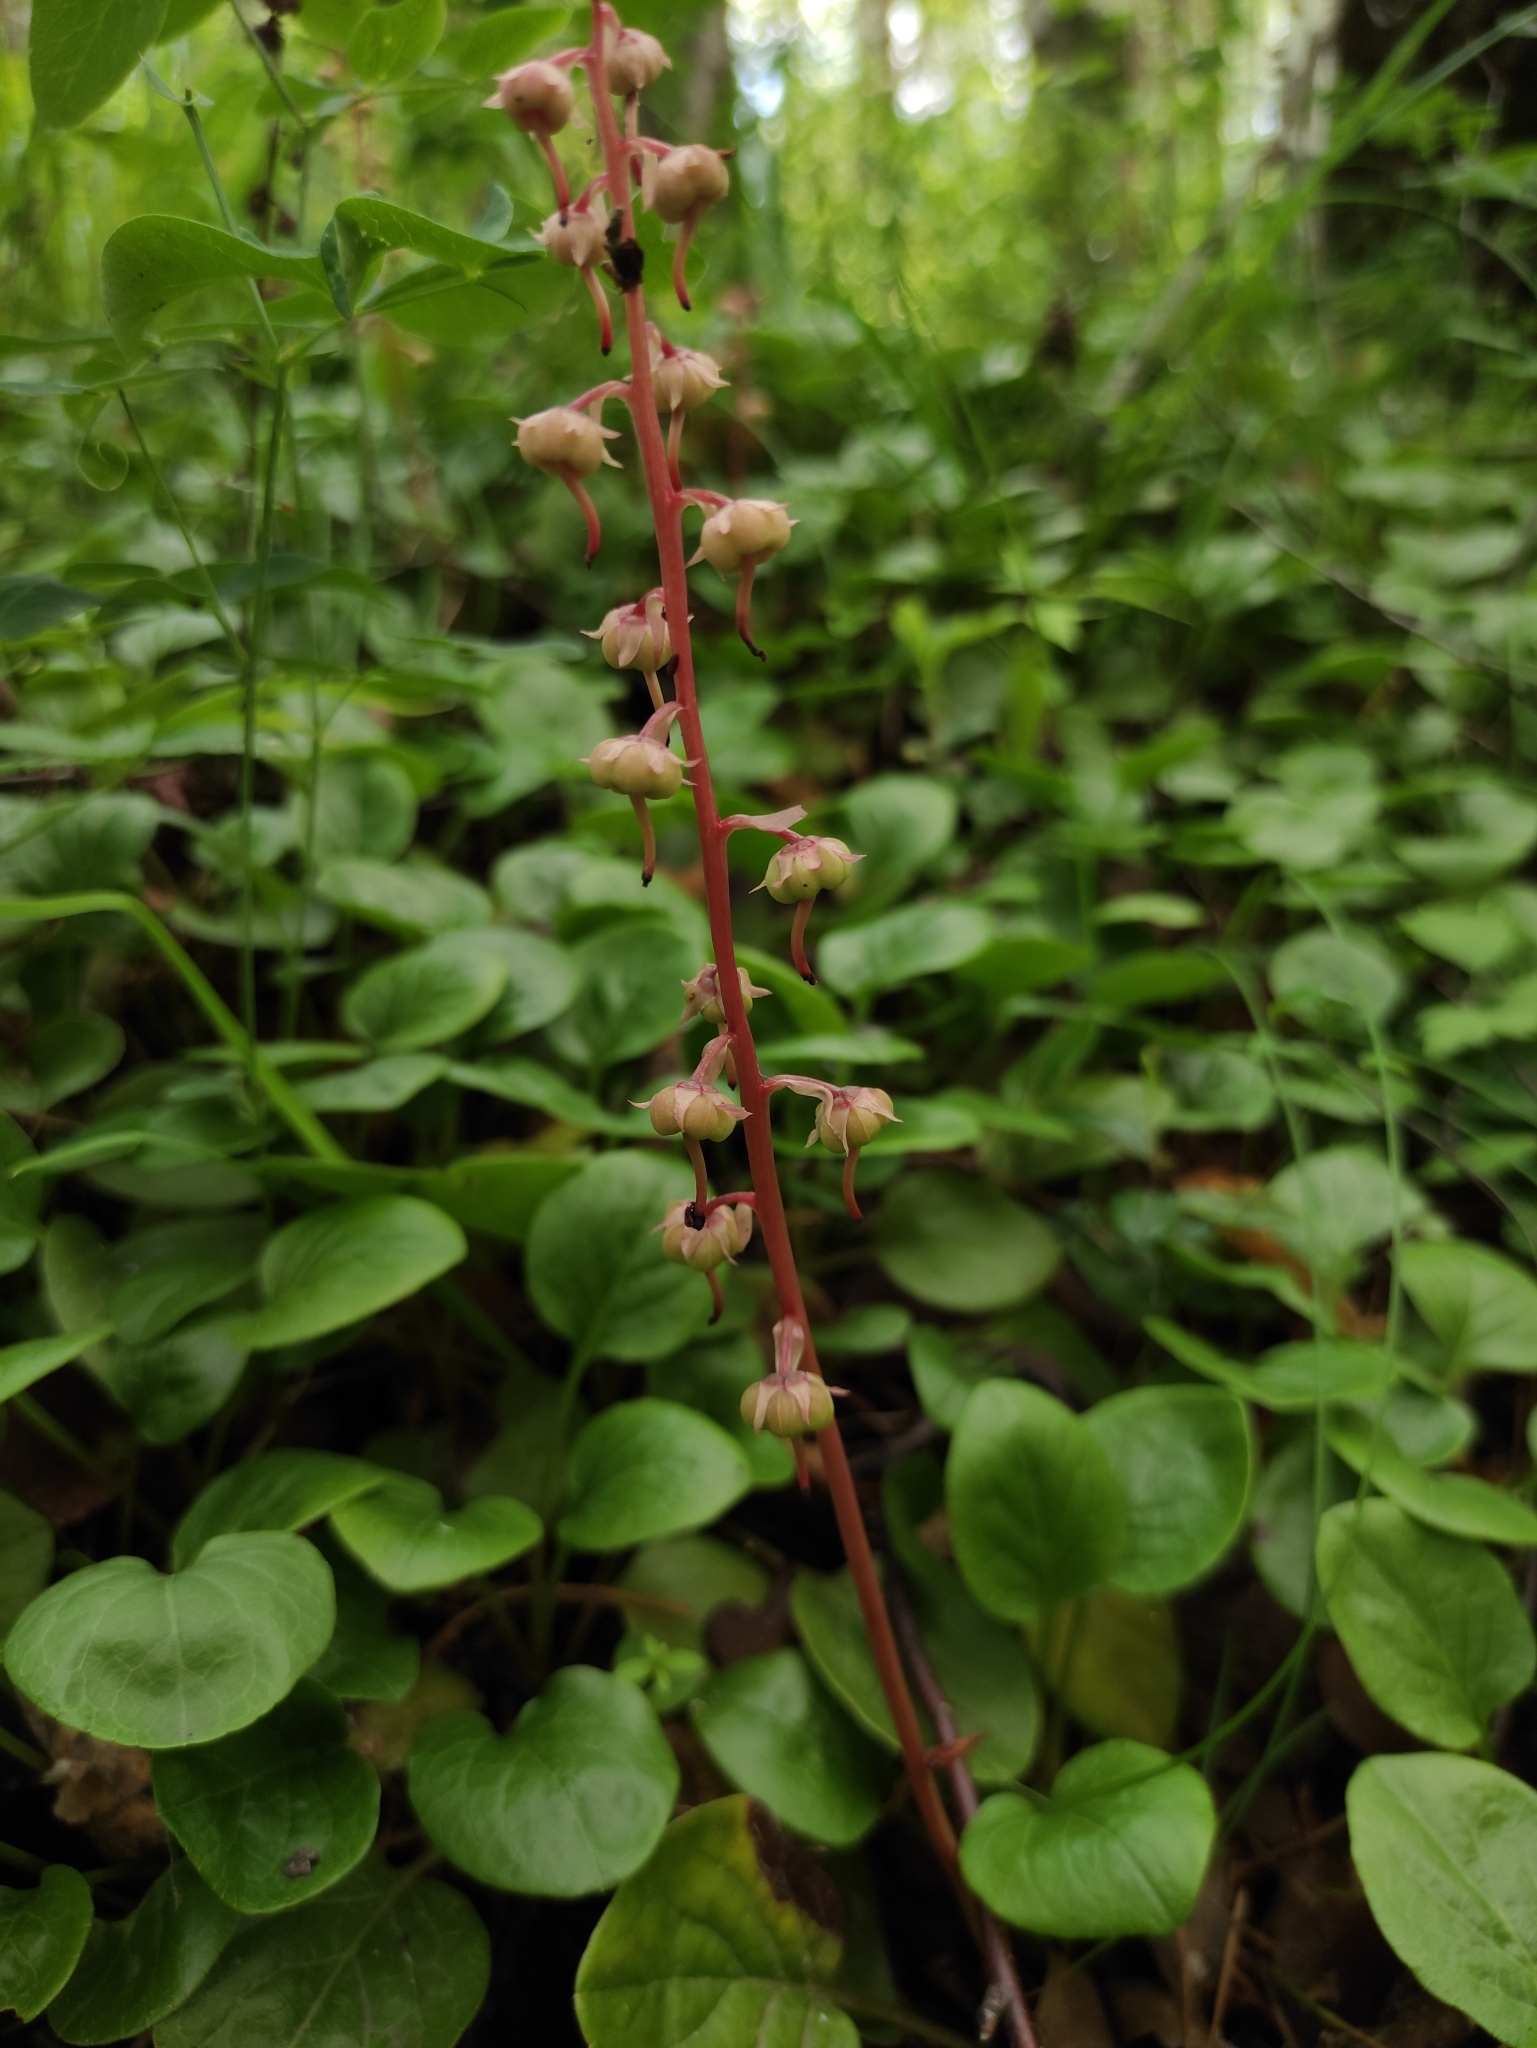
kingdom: Plantae
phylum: Tracheophyta
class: Magnoliopsida
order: Ericales
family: Ericaceae
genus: Pyrola
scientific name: Pyrola asarifolia
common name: Bog wintergreen
